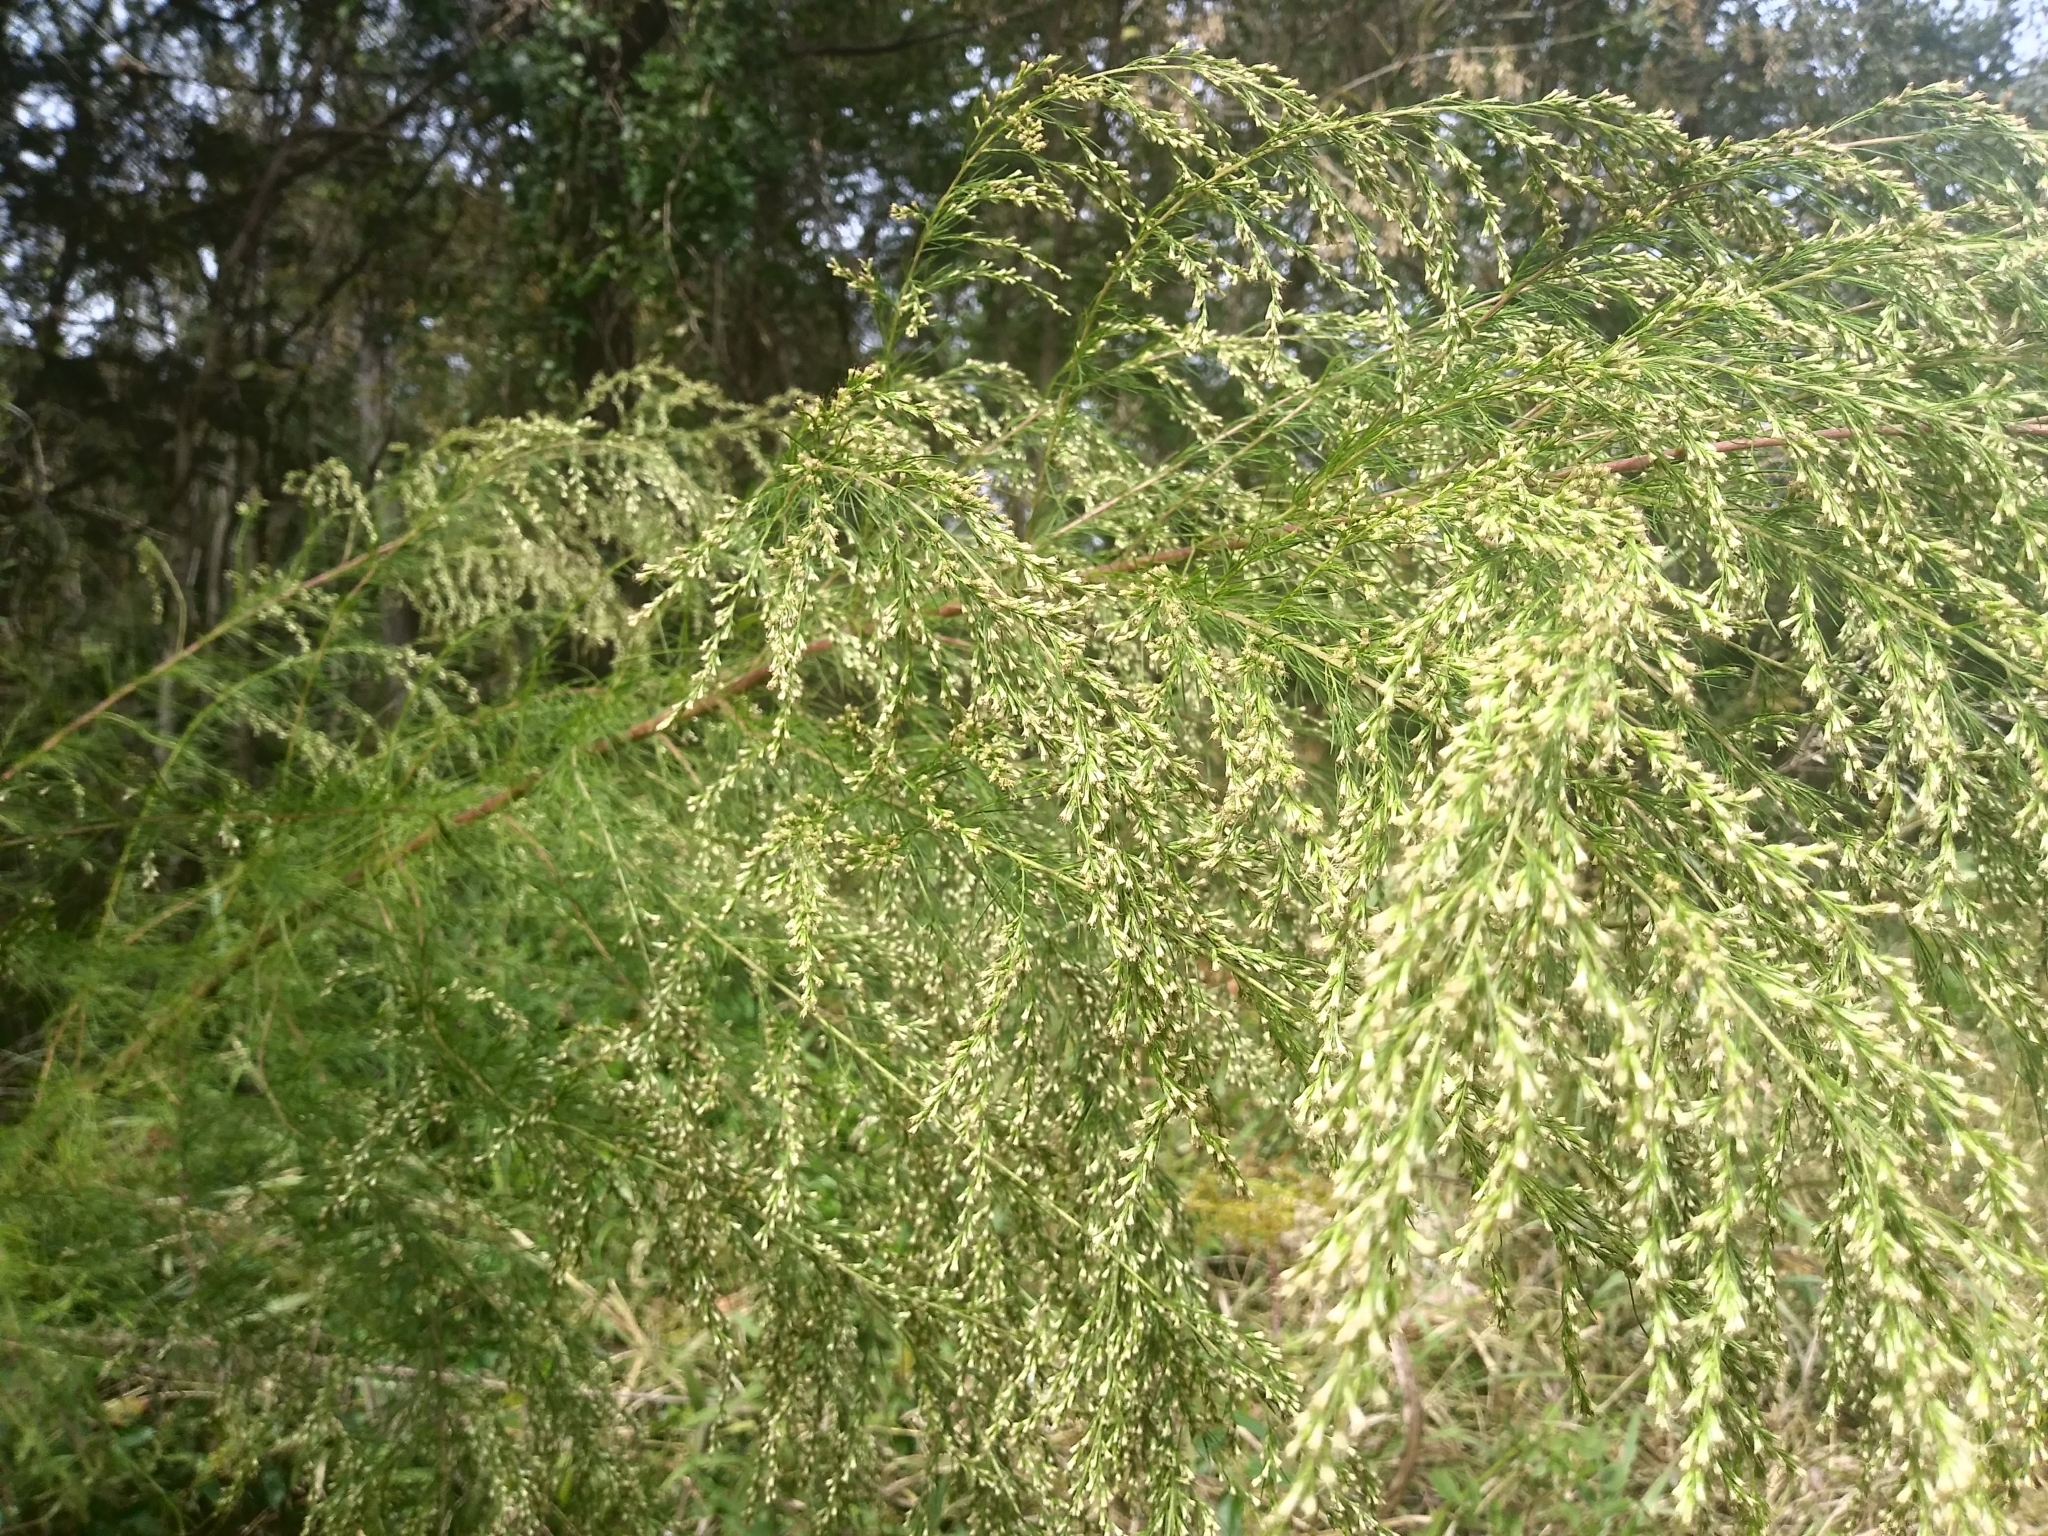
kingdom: Plantae
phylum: Tracheophyta
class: Magnoliopsida
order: Asterales
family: Asteraceae
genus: Eupatorium
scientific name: Eupatorium capillifolium
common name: Dog-fennel
